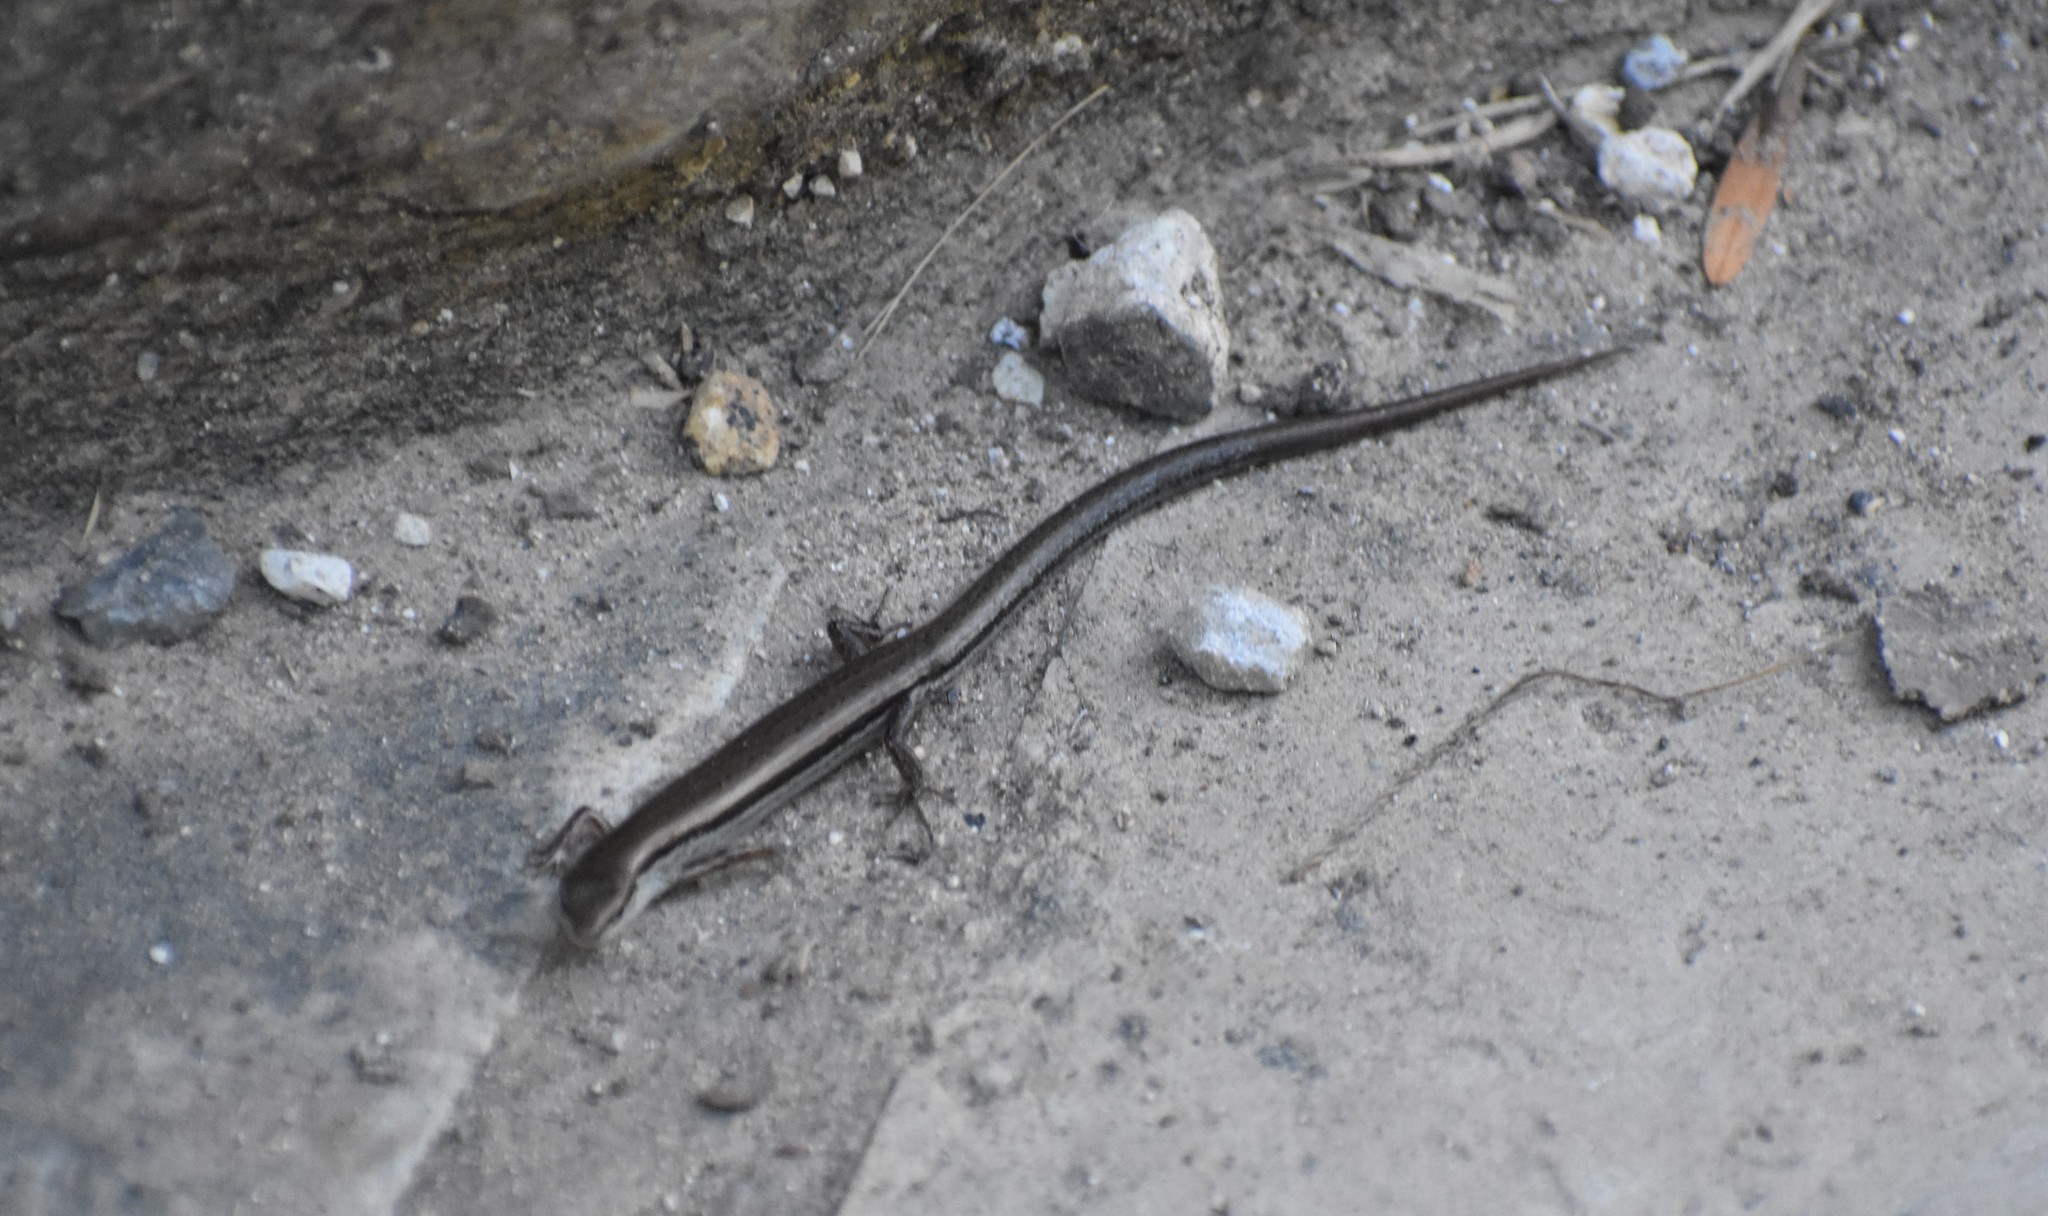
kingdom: Animalia
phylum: Chordata
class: Squamata
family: Scincidae
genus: Scincella
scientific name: Scincella lateralis
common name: Ground skink
